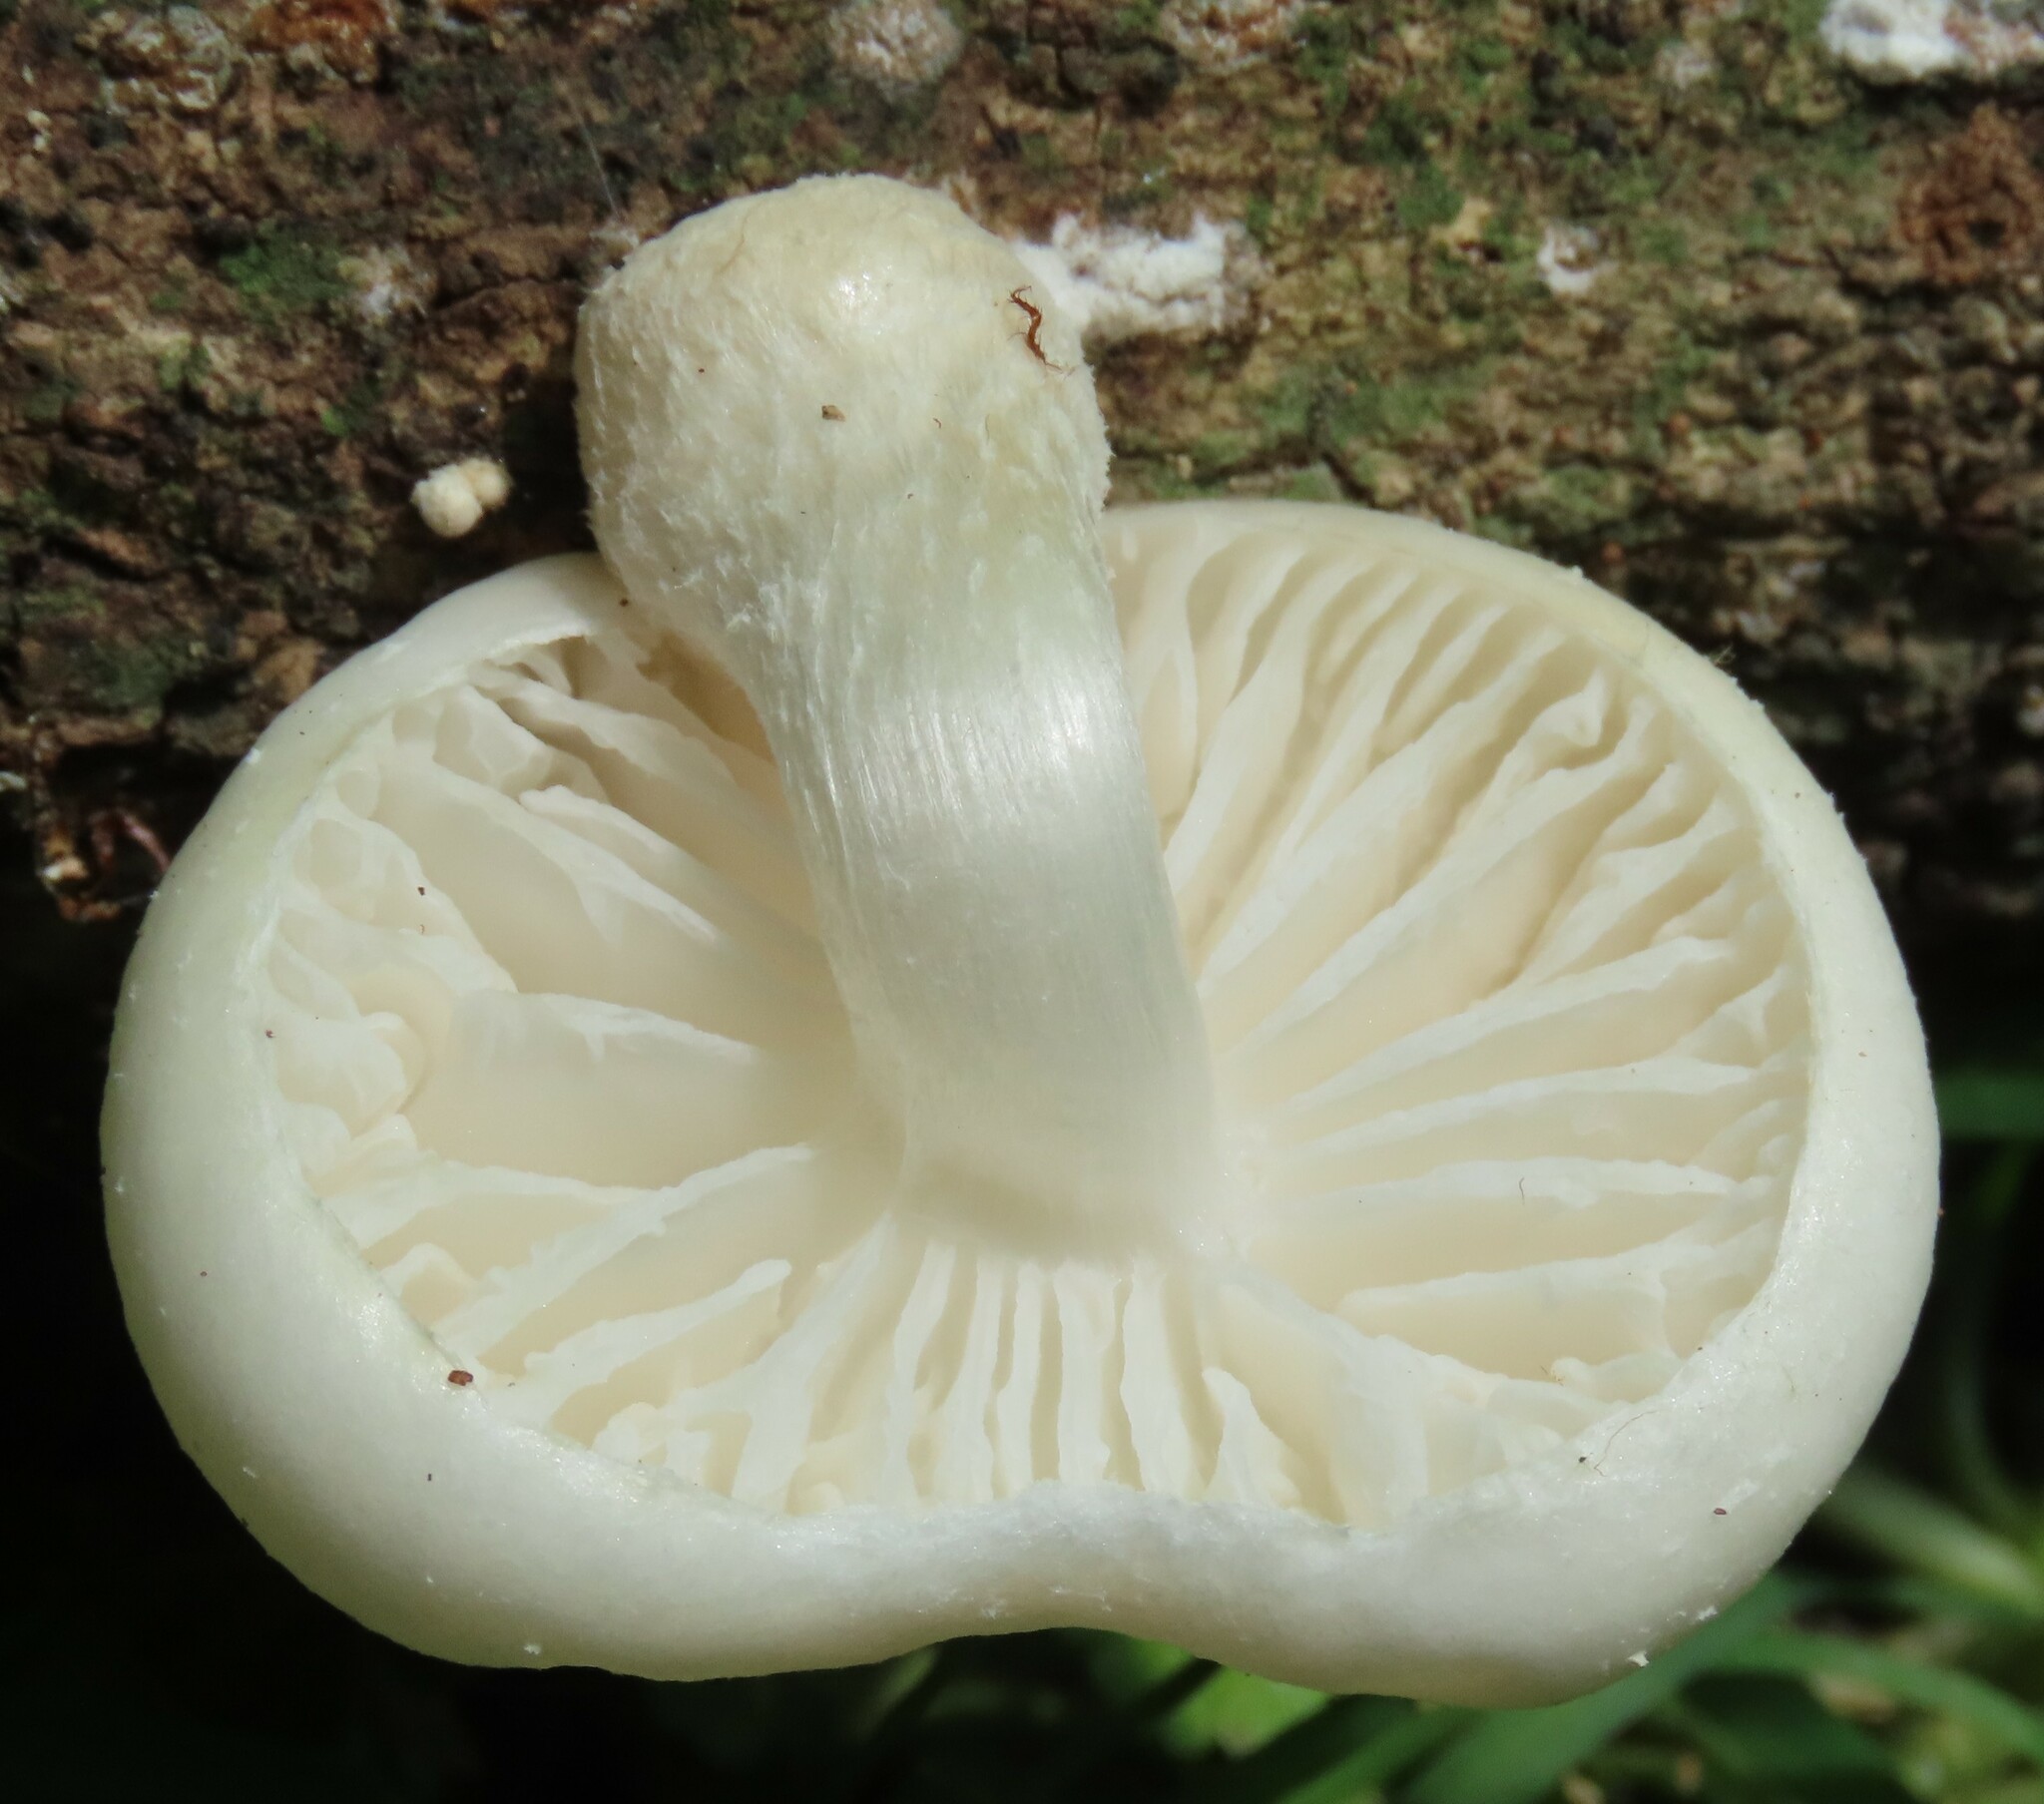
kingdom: Fungi
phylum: Basidiomycota
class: Agaricomycetes
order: Agaricales
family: Physalacriaceae
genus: Oudemansiella
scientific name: Oudemansiella australis
